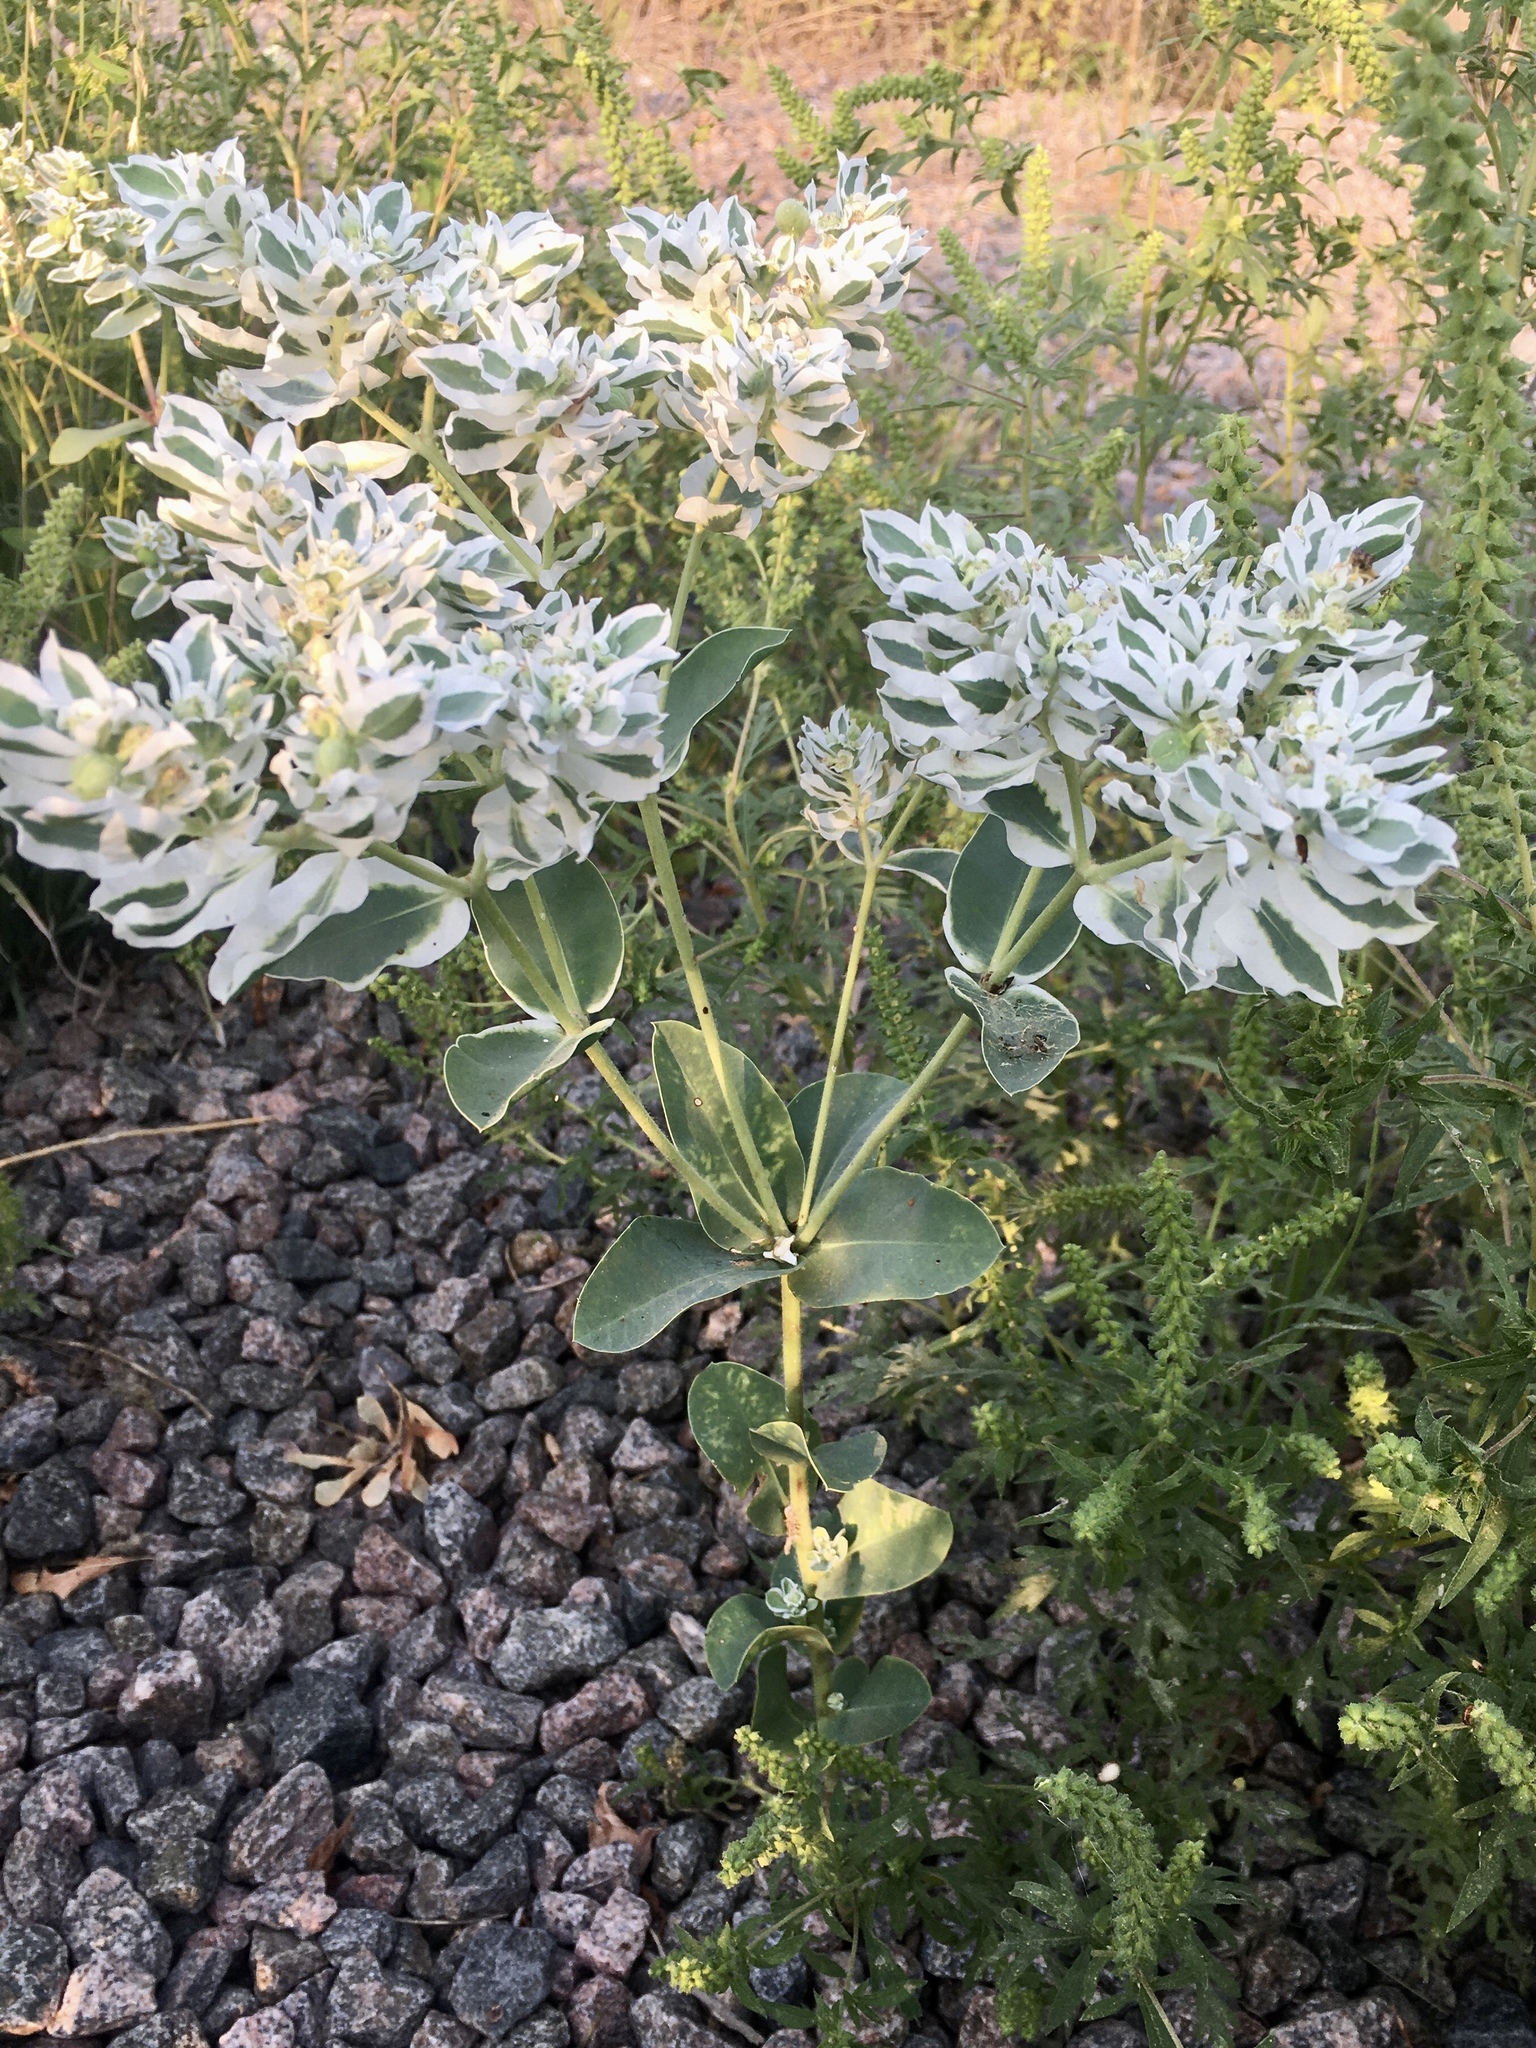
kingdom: Plantae
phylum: Tracheophyta
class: Magnoliopsida
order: Malpighiales
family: Euphorbiaceae
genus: Euphorbia
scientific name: Euphorbia marginata
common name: Ghostweed
